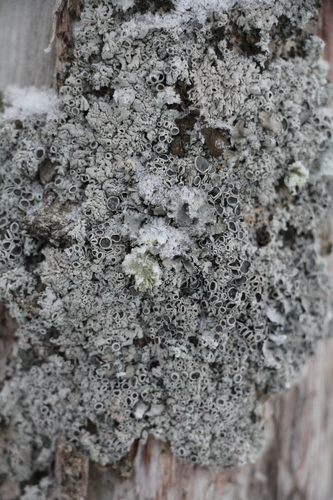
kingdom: Fungi
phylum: Ascomycota
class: Lecanoromycetes
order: Caliciales
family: Physciaceae
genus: Physcia
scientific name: Physcia
